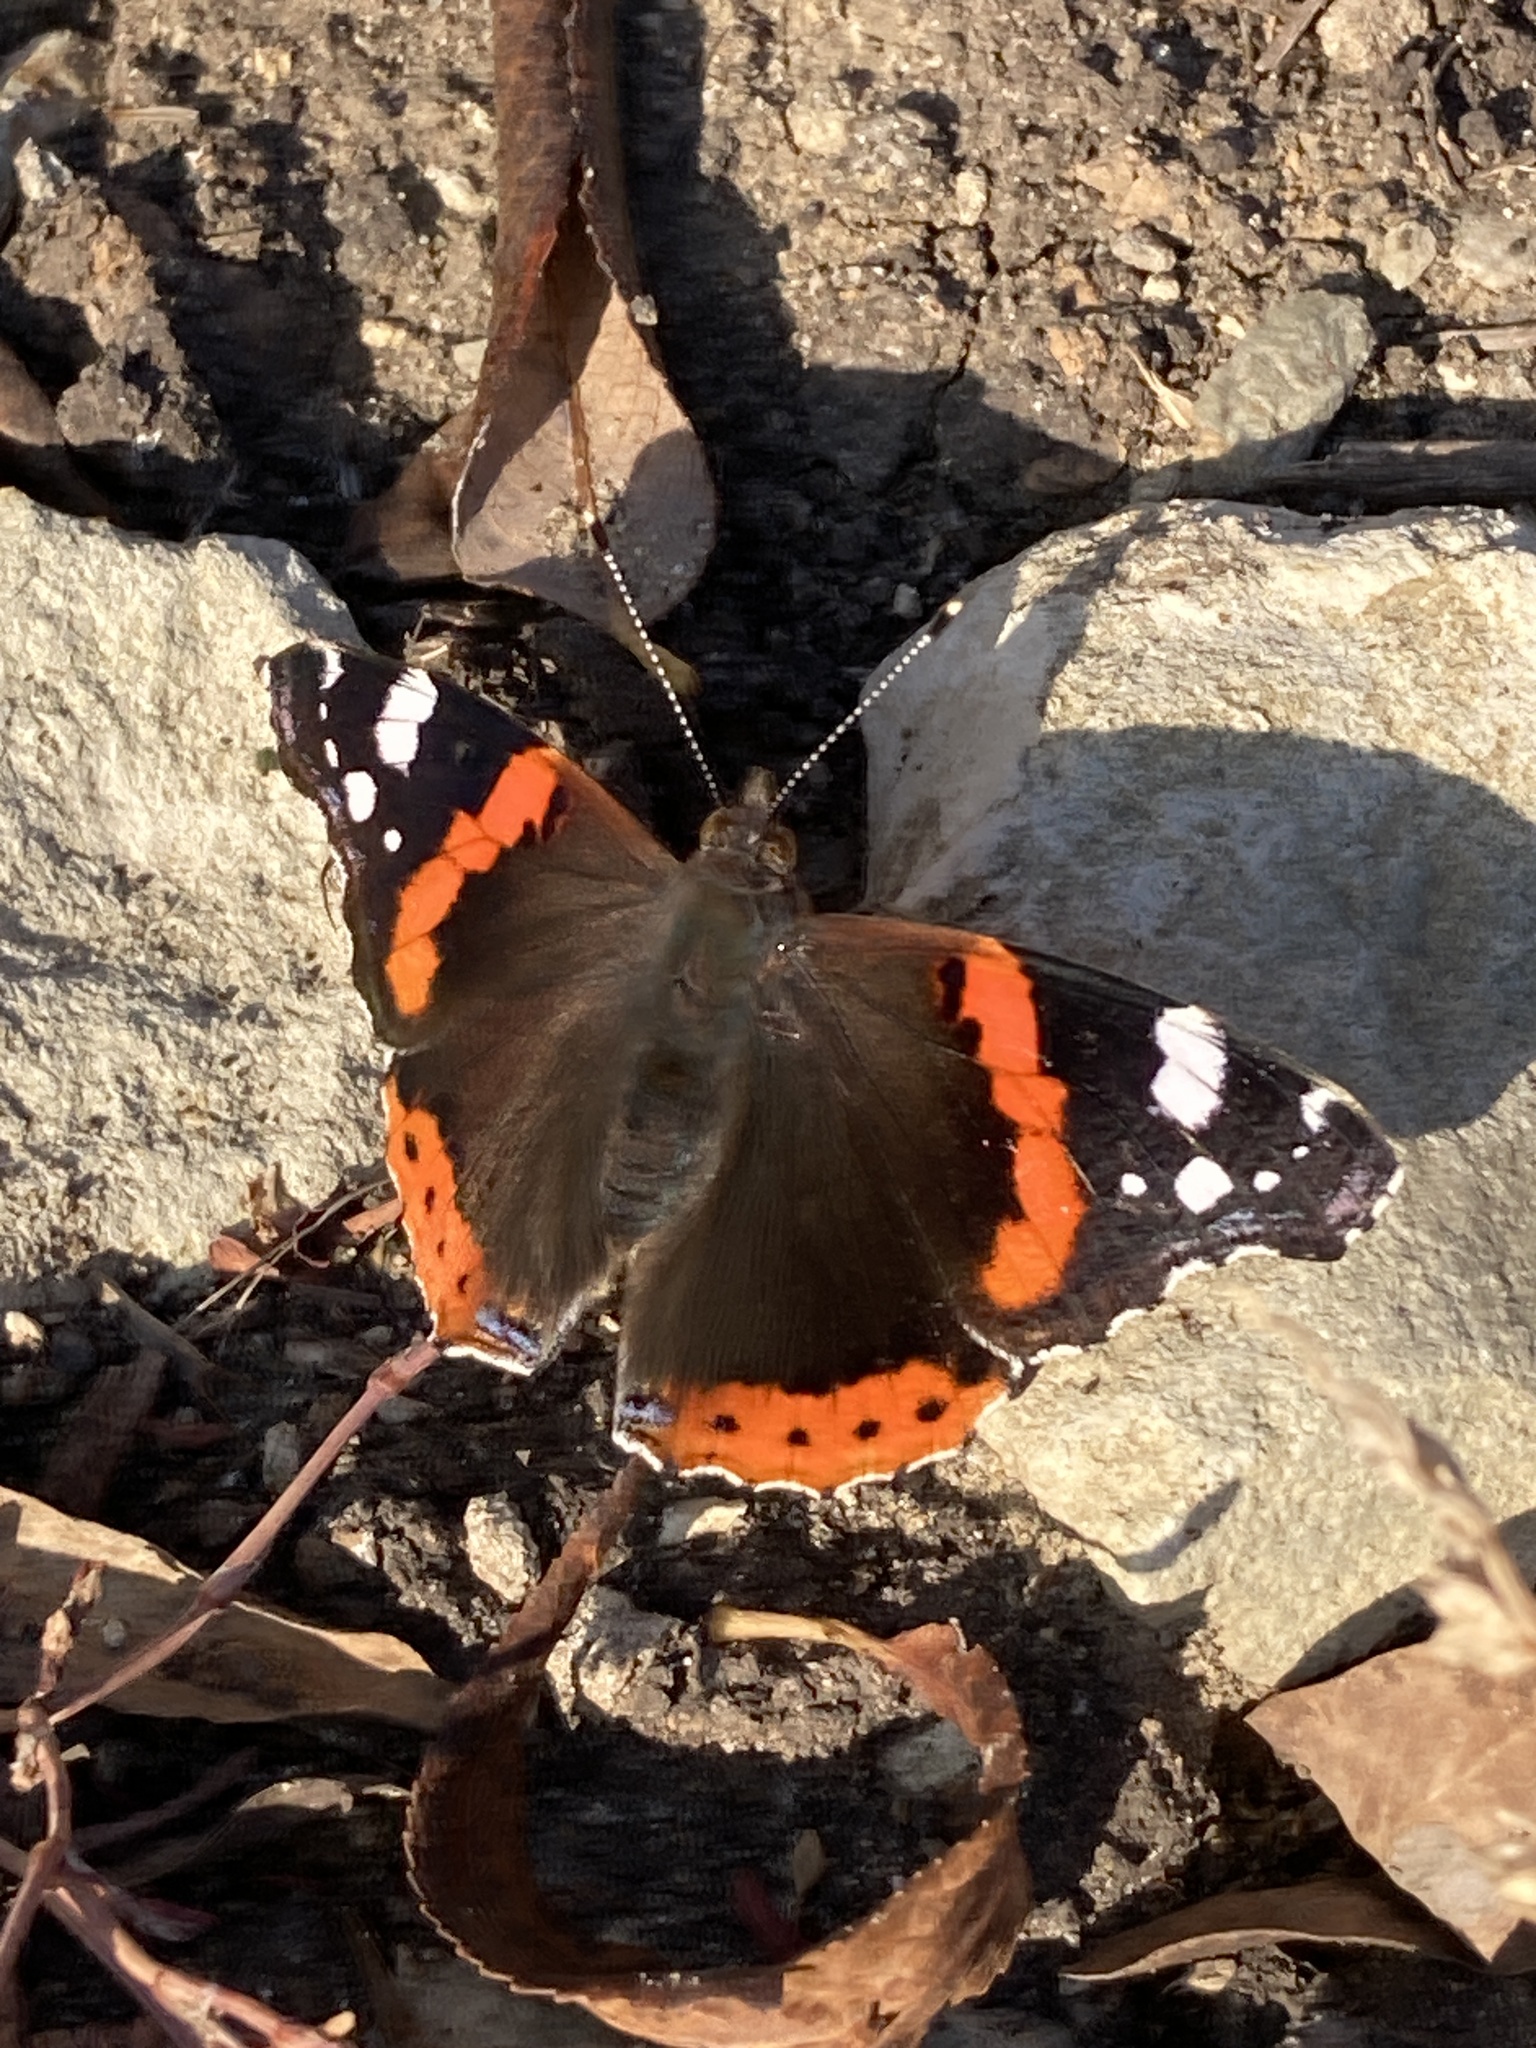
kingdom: Animalia
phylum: Arthropoda
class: Insecta
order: Lepidoptera
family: Nymphalidae
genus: Vanessa
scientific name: Vanessa atalanta
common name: Red admiral
